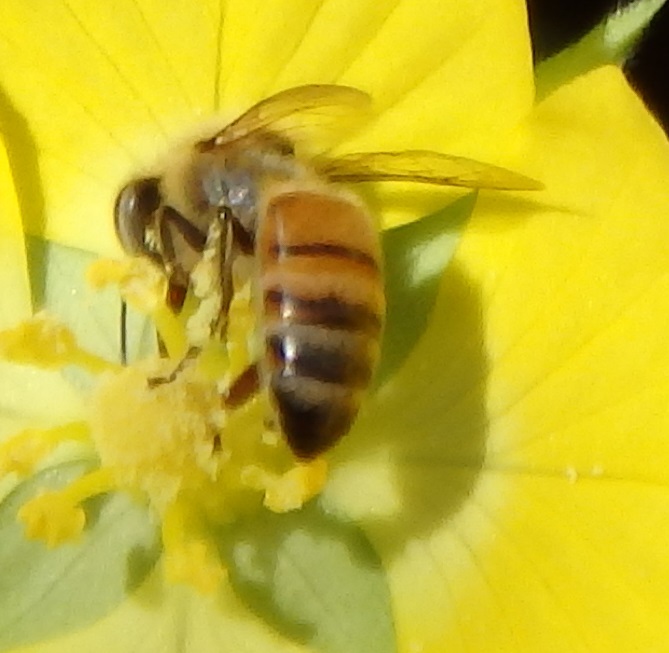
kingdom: Animalia
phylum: Arthropoda
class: Insecta
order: Hymenoptera
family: Apidae
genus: Apis
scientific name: Apis mellifera
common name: Honey bee
